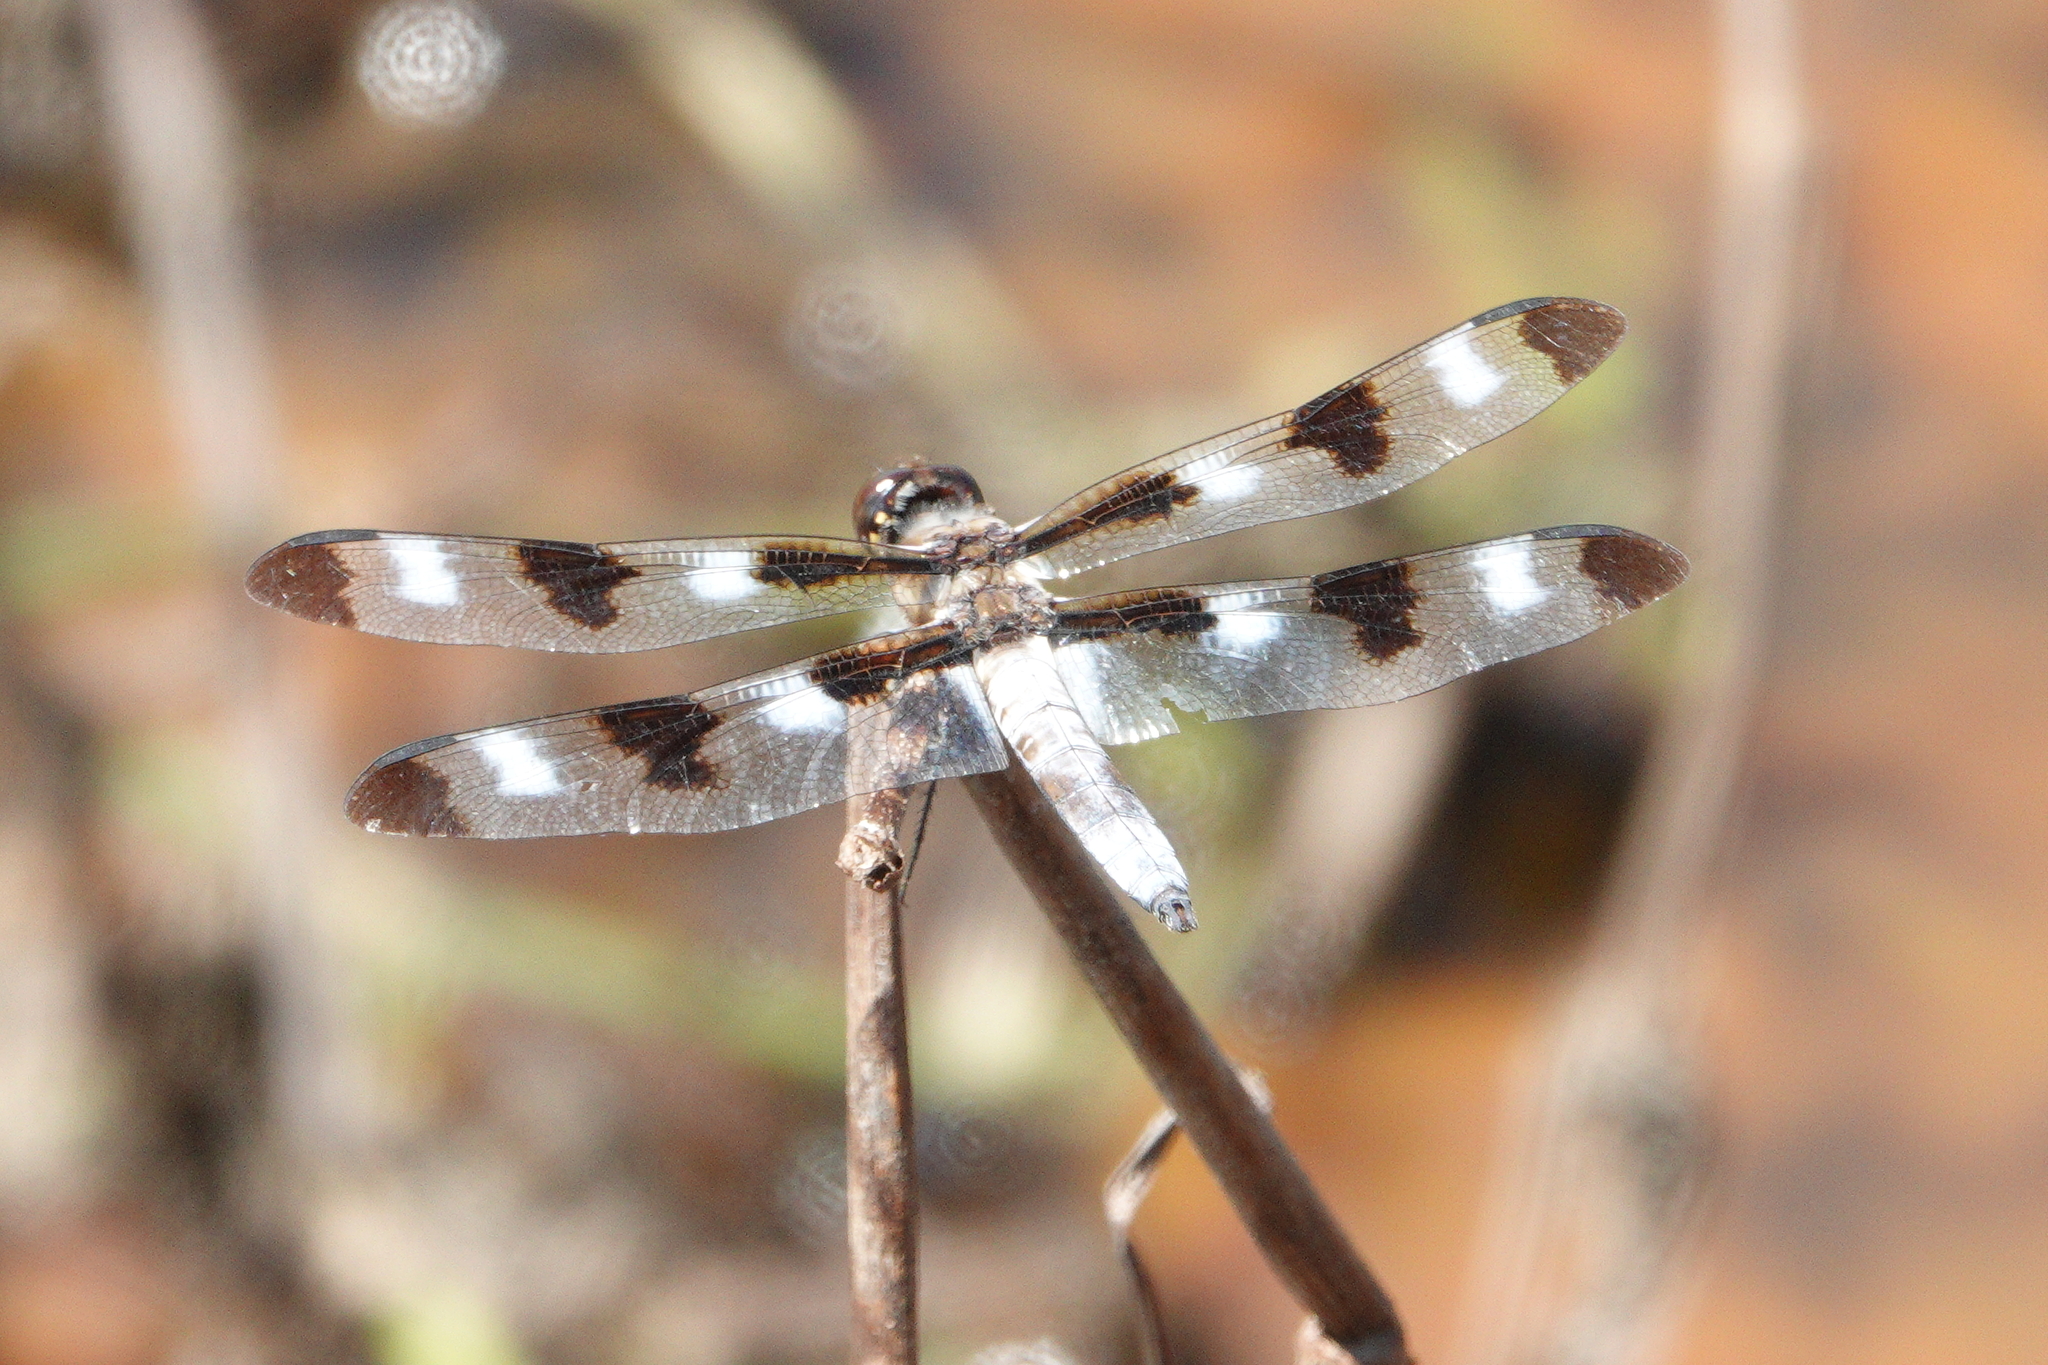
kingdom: Animalia
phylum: Arthropoda
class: Insecta
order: Odonata
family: Libellulidae
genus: Libellula
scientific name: Libellula pulchella
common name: Twelve-spotted skimmer
